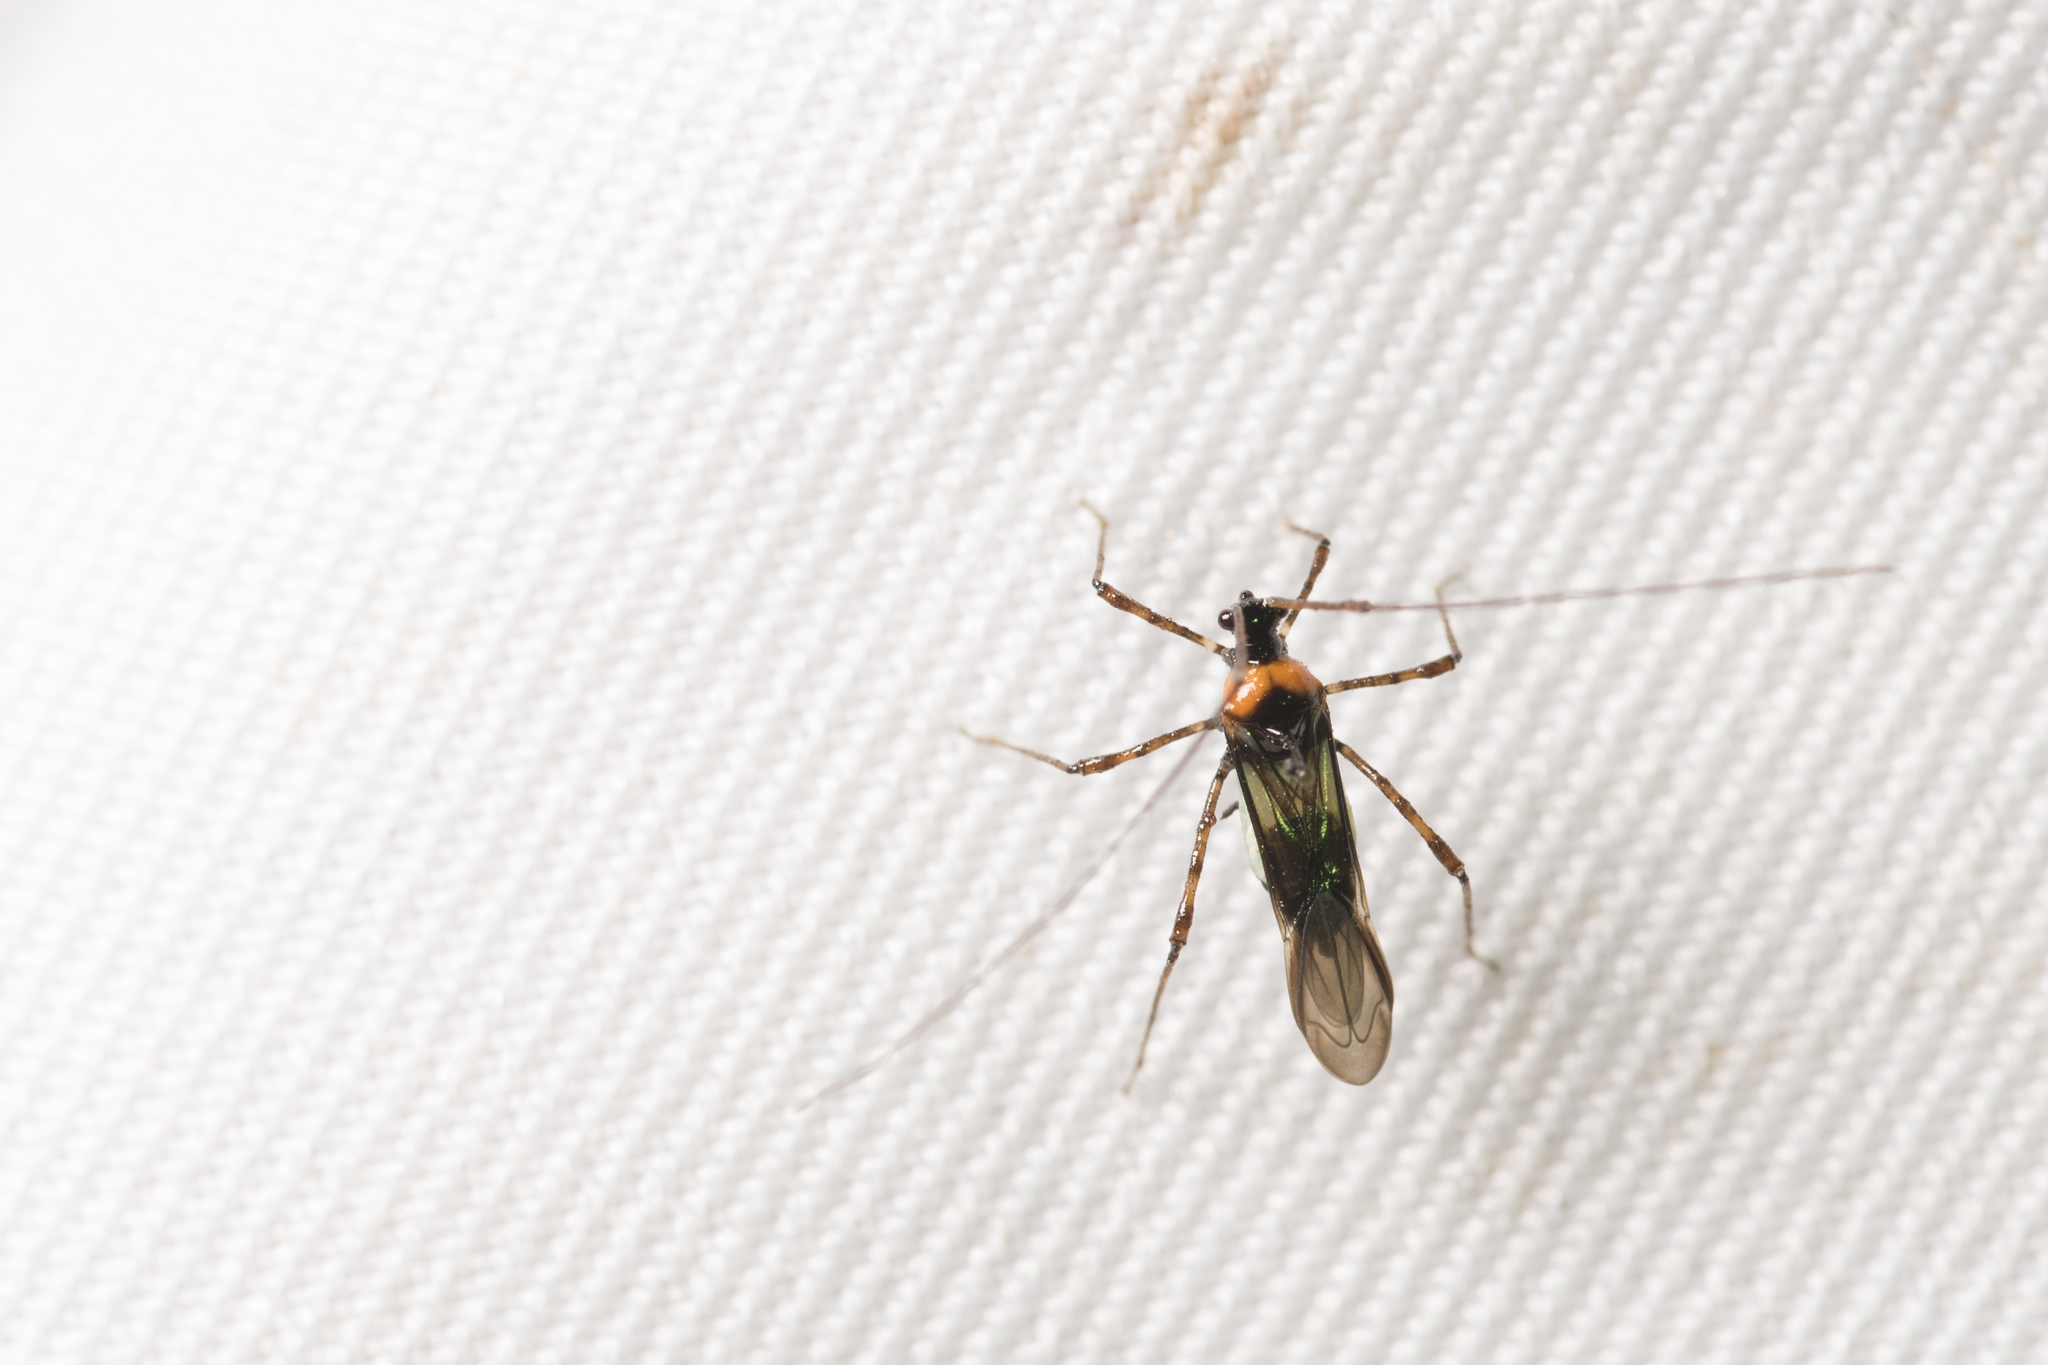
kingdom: Animalia
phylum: Arthropoda
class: Insecta
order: Hemiptera
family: Miridae
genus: Helopeltis
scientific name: Helopeltis fasciaticollis
